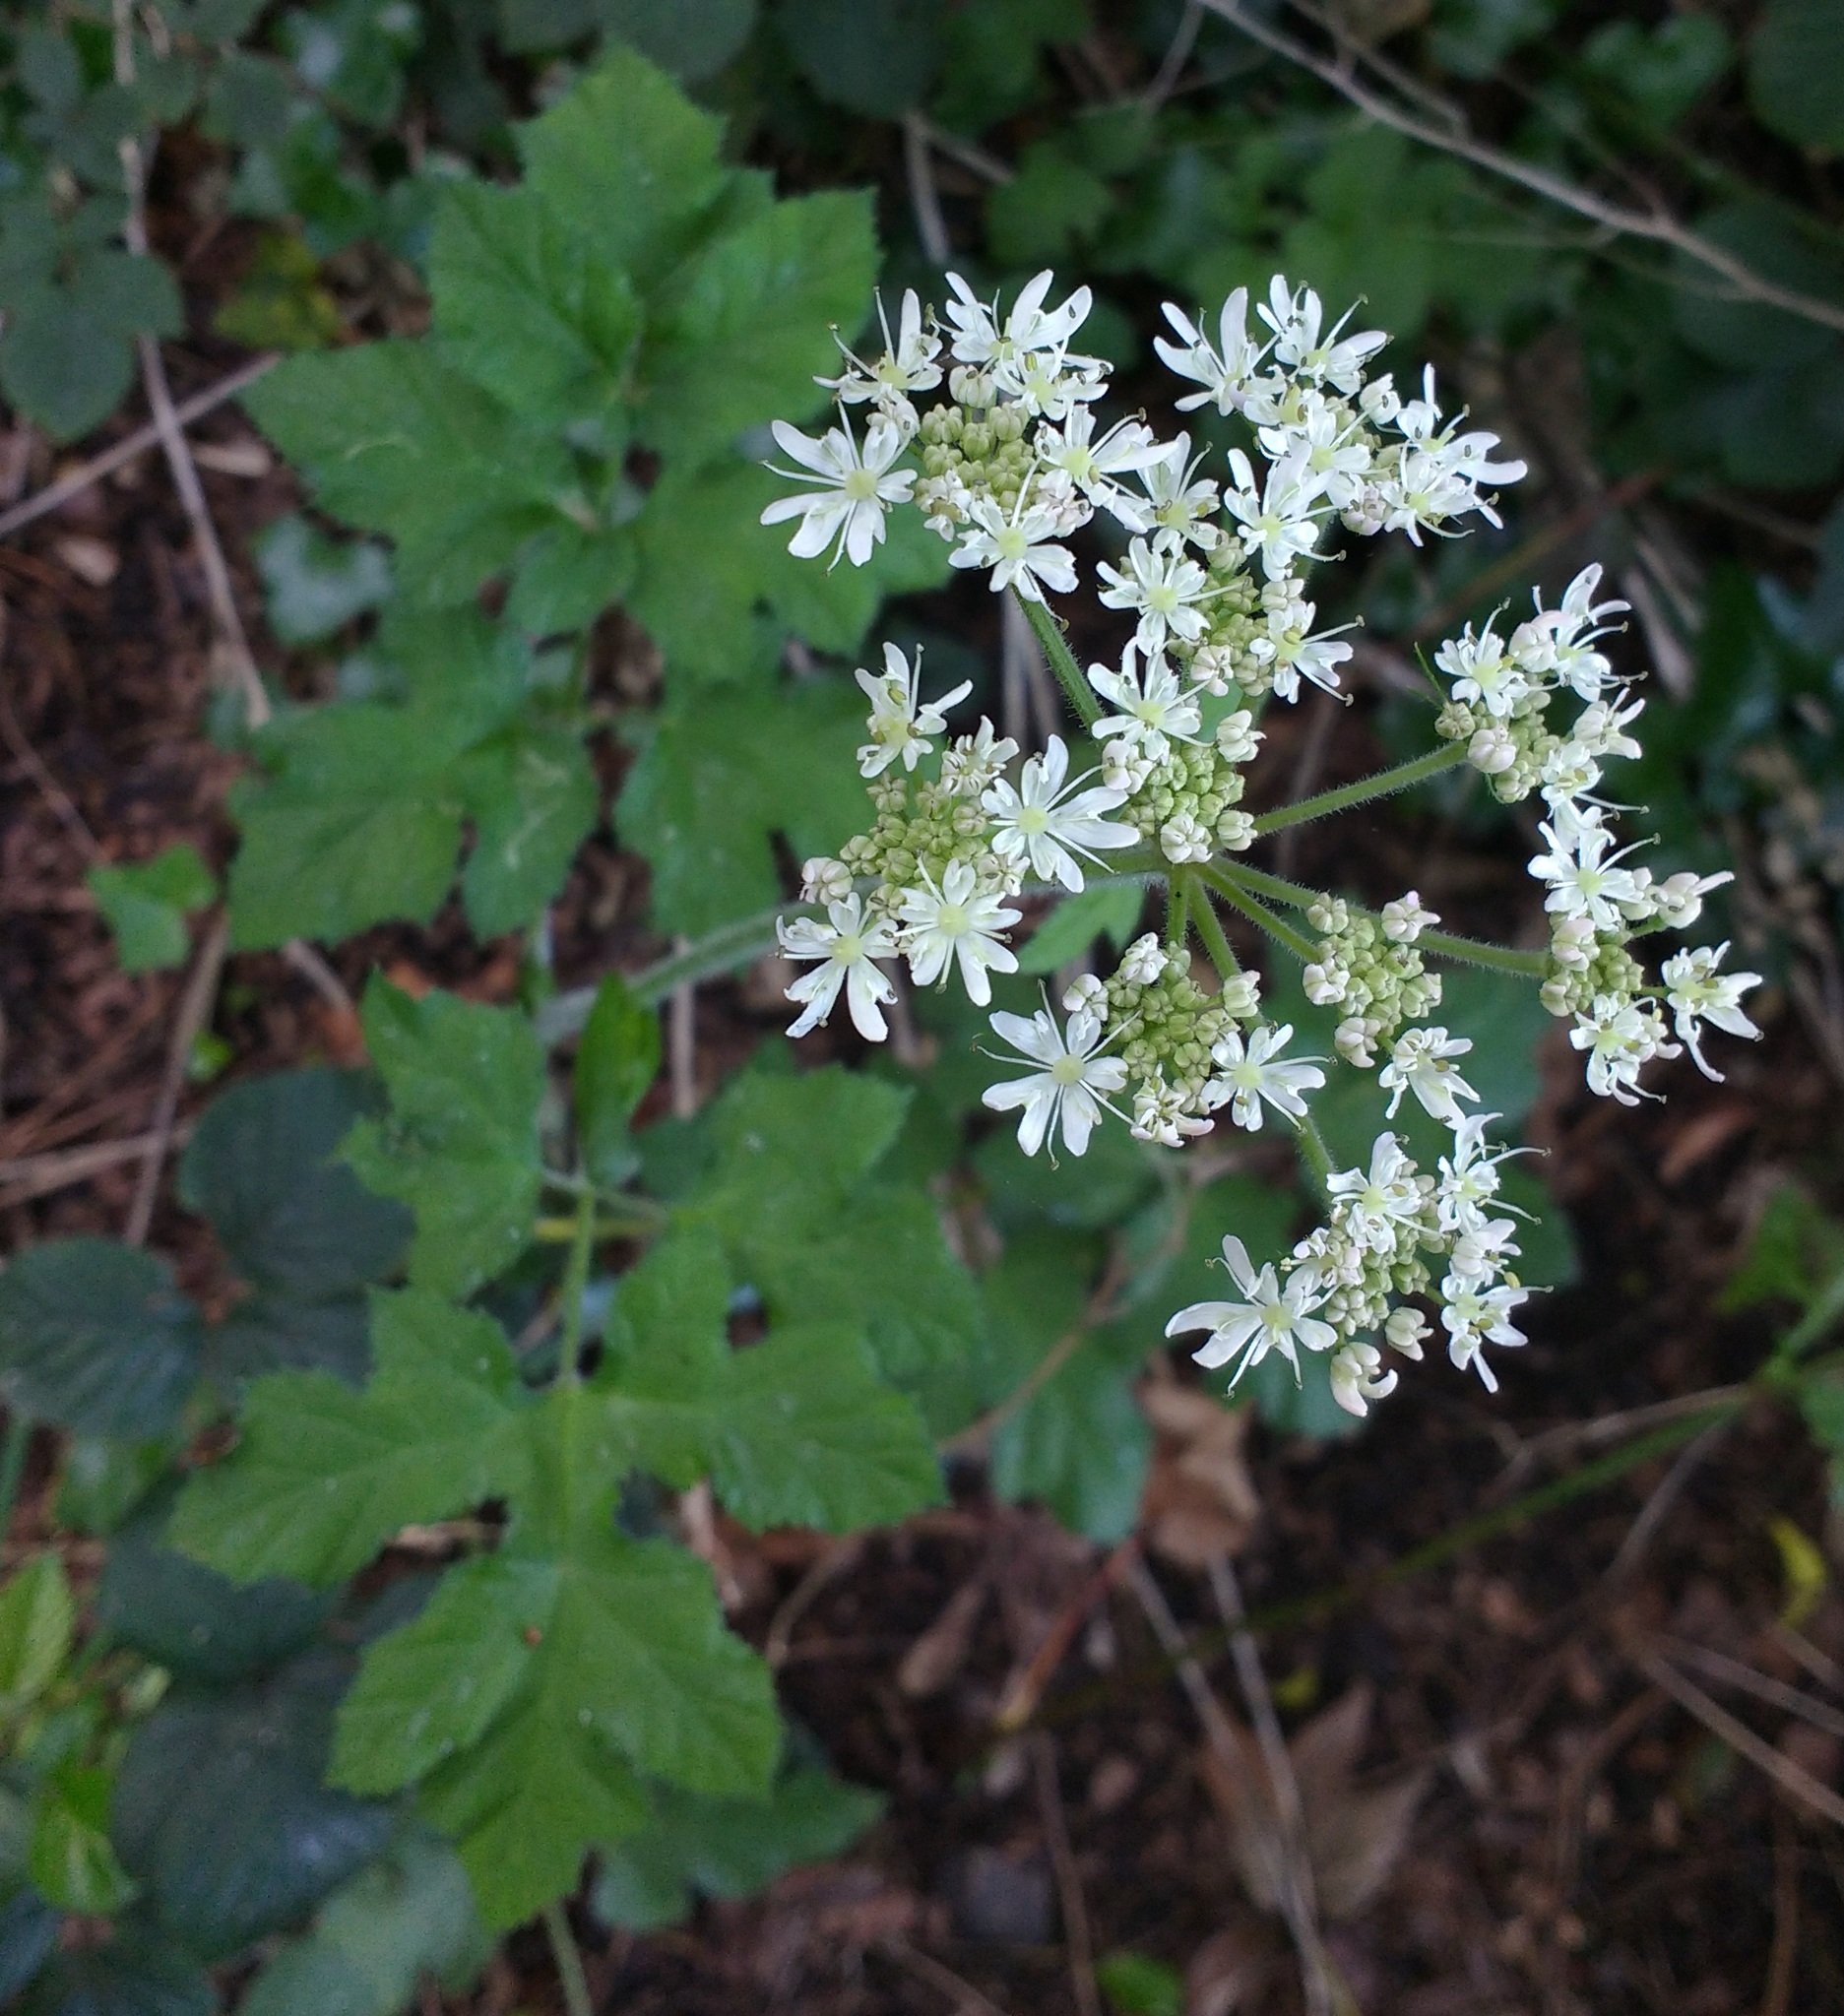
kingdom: Plantae
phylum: Tracheophyta
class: Magnoliopsida
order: Apiales
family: Apiaceae
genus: Heracleum
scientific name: Heracleum sphondylium
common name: Hogweed
